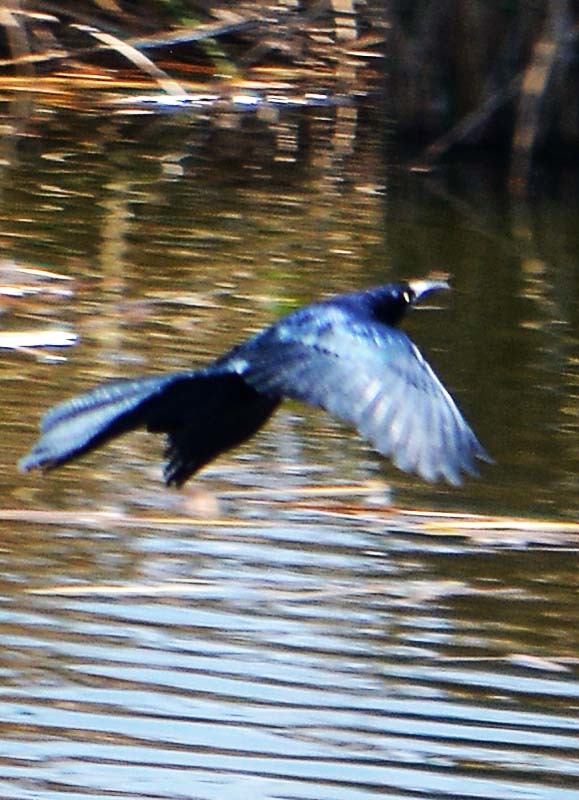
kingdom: Animalia
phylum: Chordata
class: Aves
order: Passeriformes
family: Icteridae
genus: Quiscalus
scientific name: Quiscalus mexicanus
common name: Great-tailed grackle
